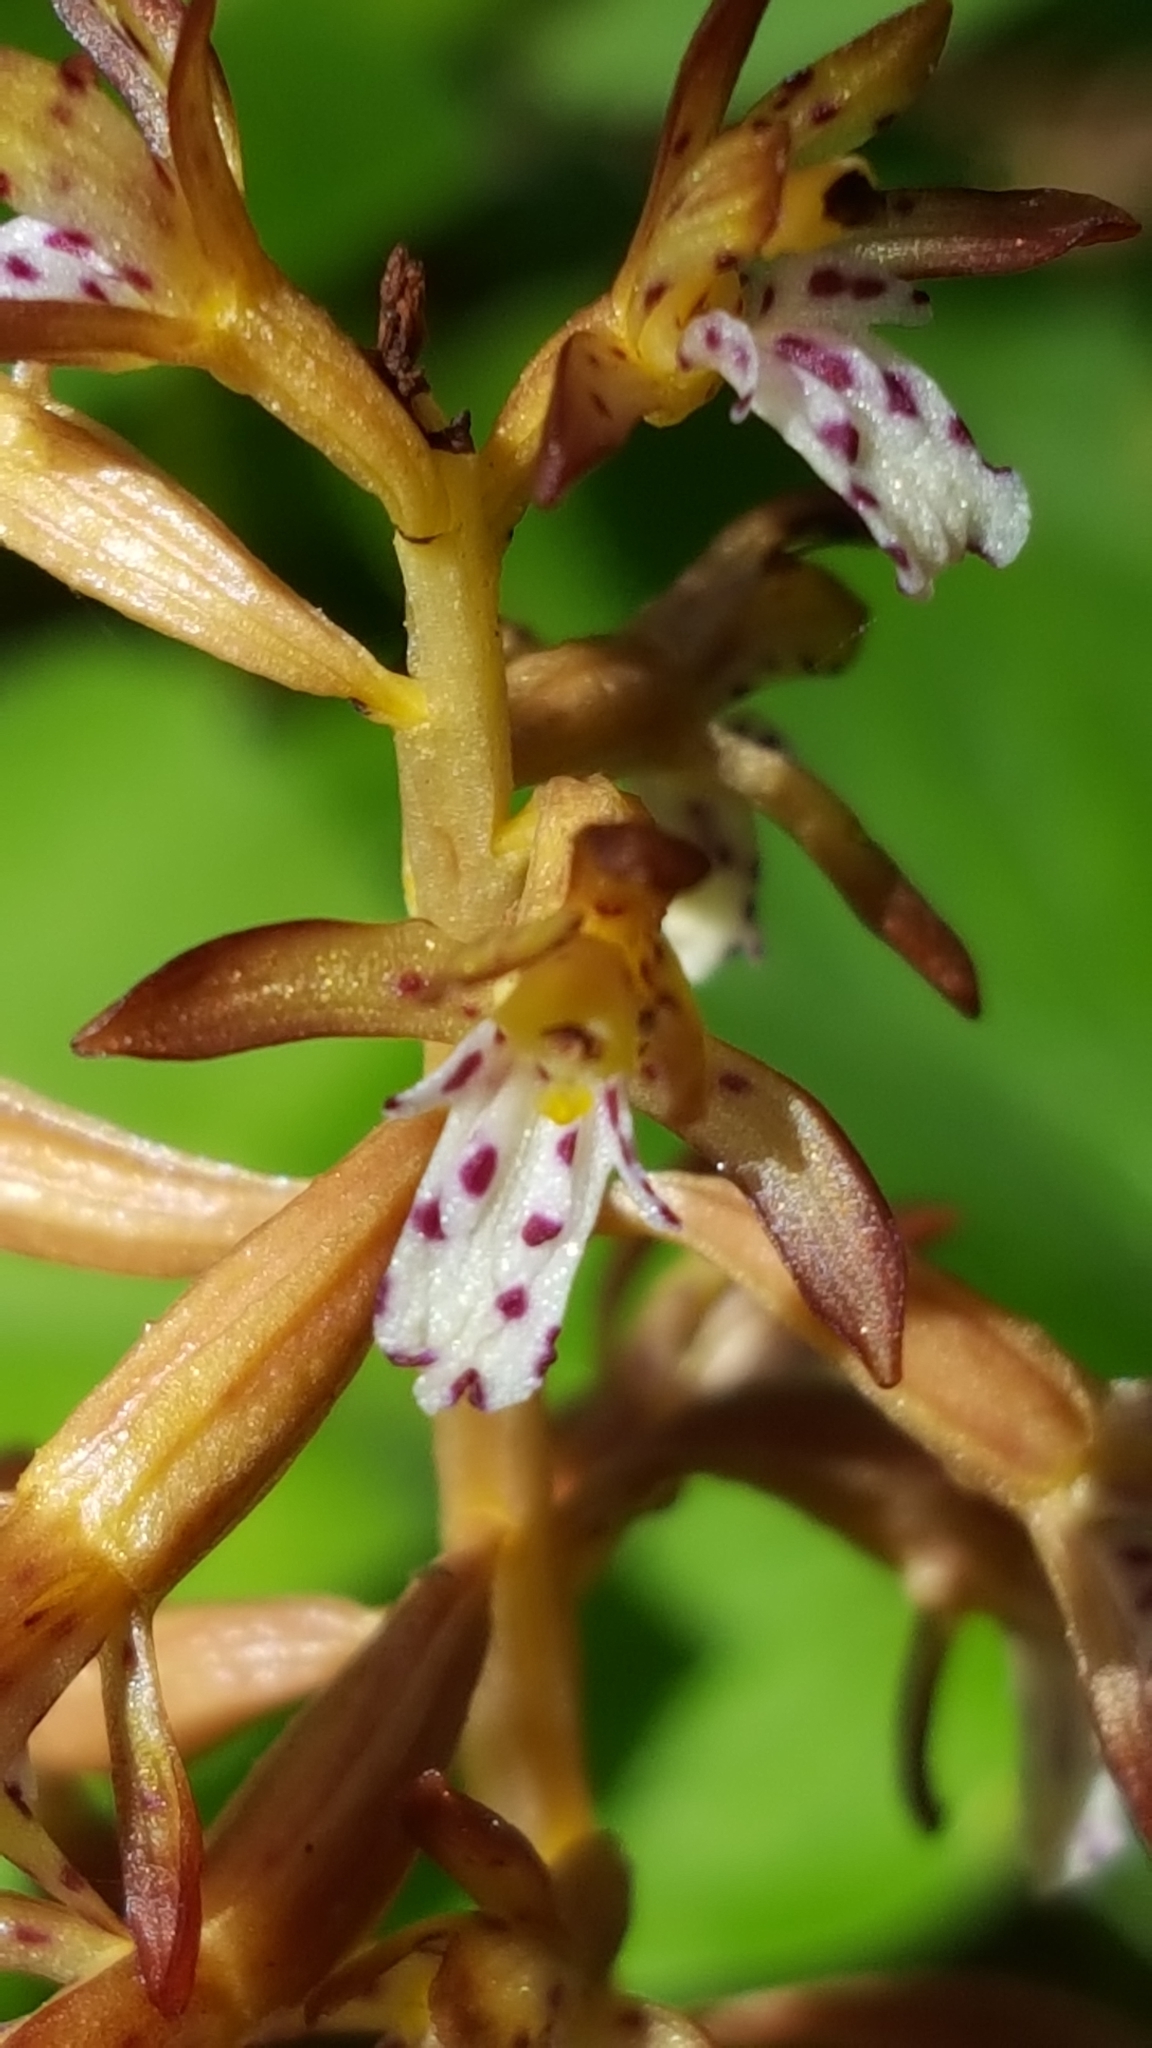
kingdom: Plantae
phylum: Tracheophyta
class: Liliopsida
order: Asparagales
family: Orchidaceae
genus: Corallorhiza
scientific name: Corallorhiza maculata
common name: Spotted coralroot
